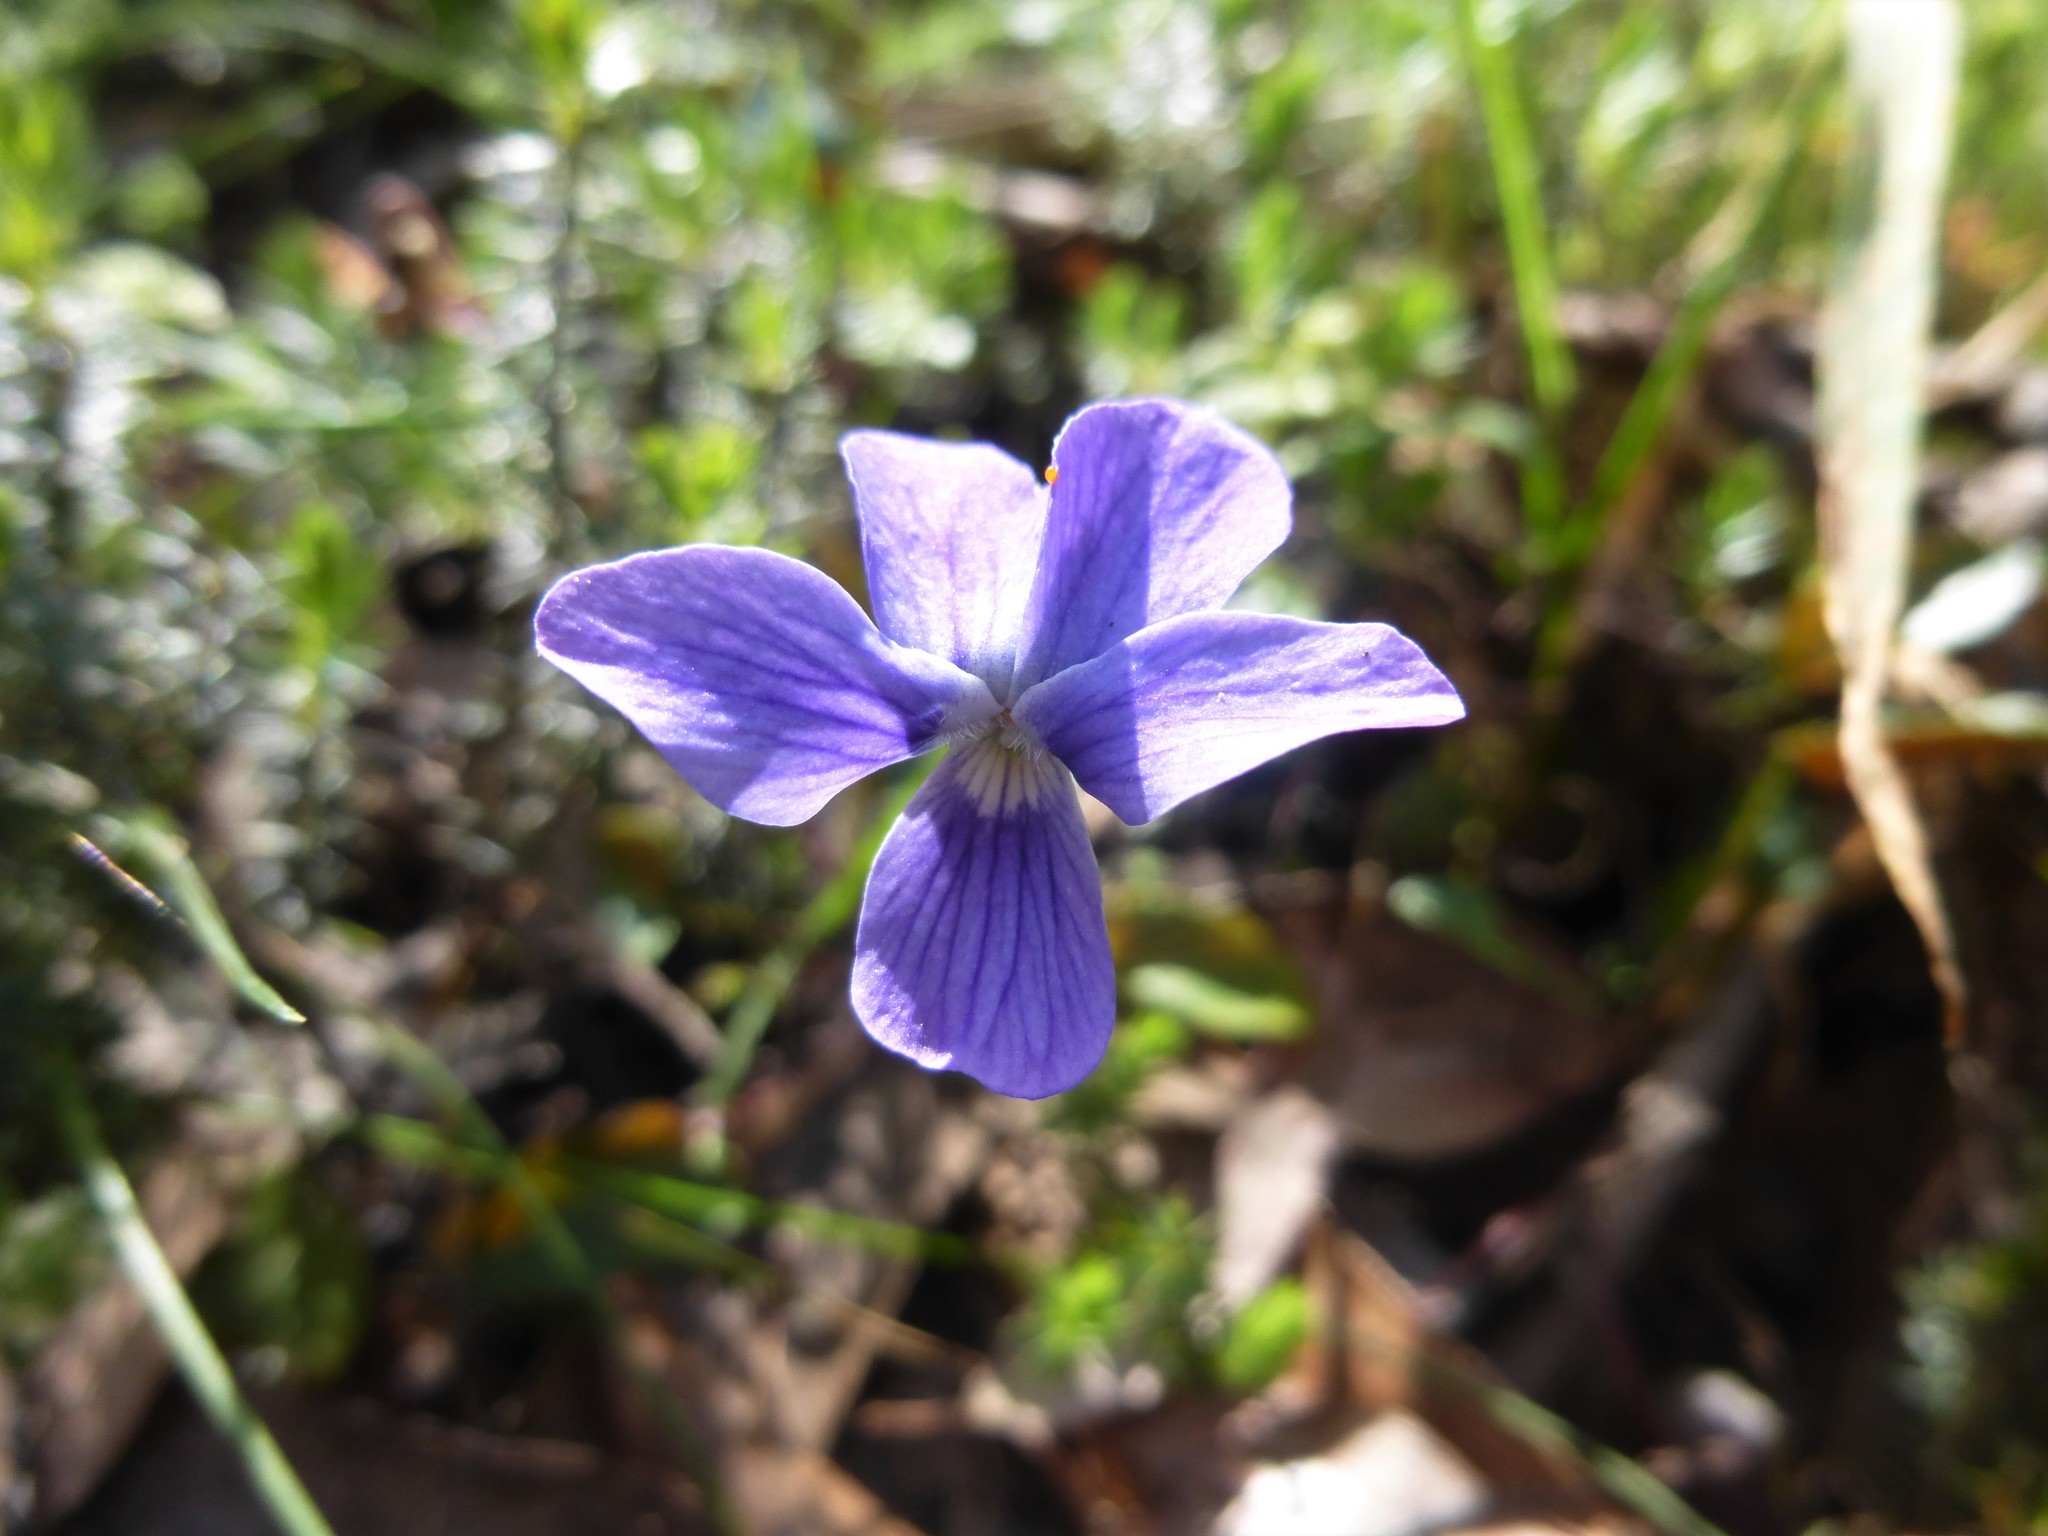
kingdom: Plantae
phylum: Tracheophyta
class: Magnoliopsida
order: Malpighiales
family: Violaceae
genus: Viola
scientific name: Viola betonicifolia
